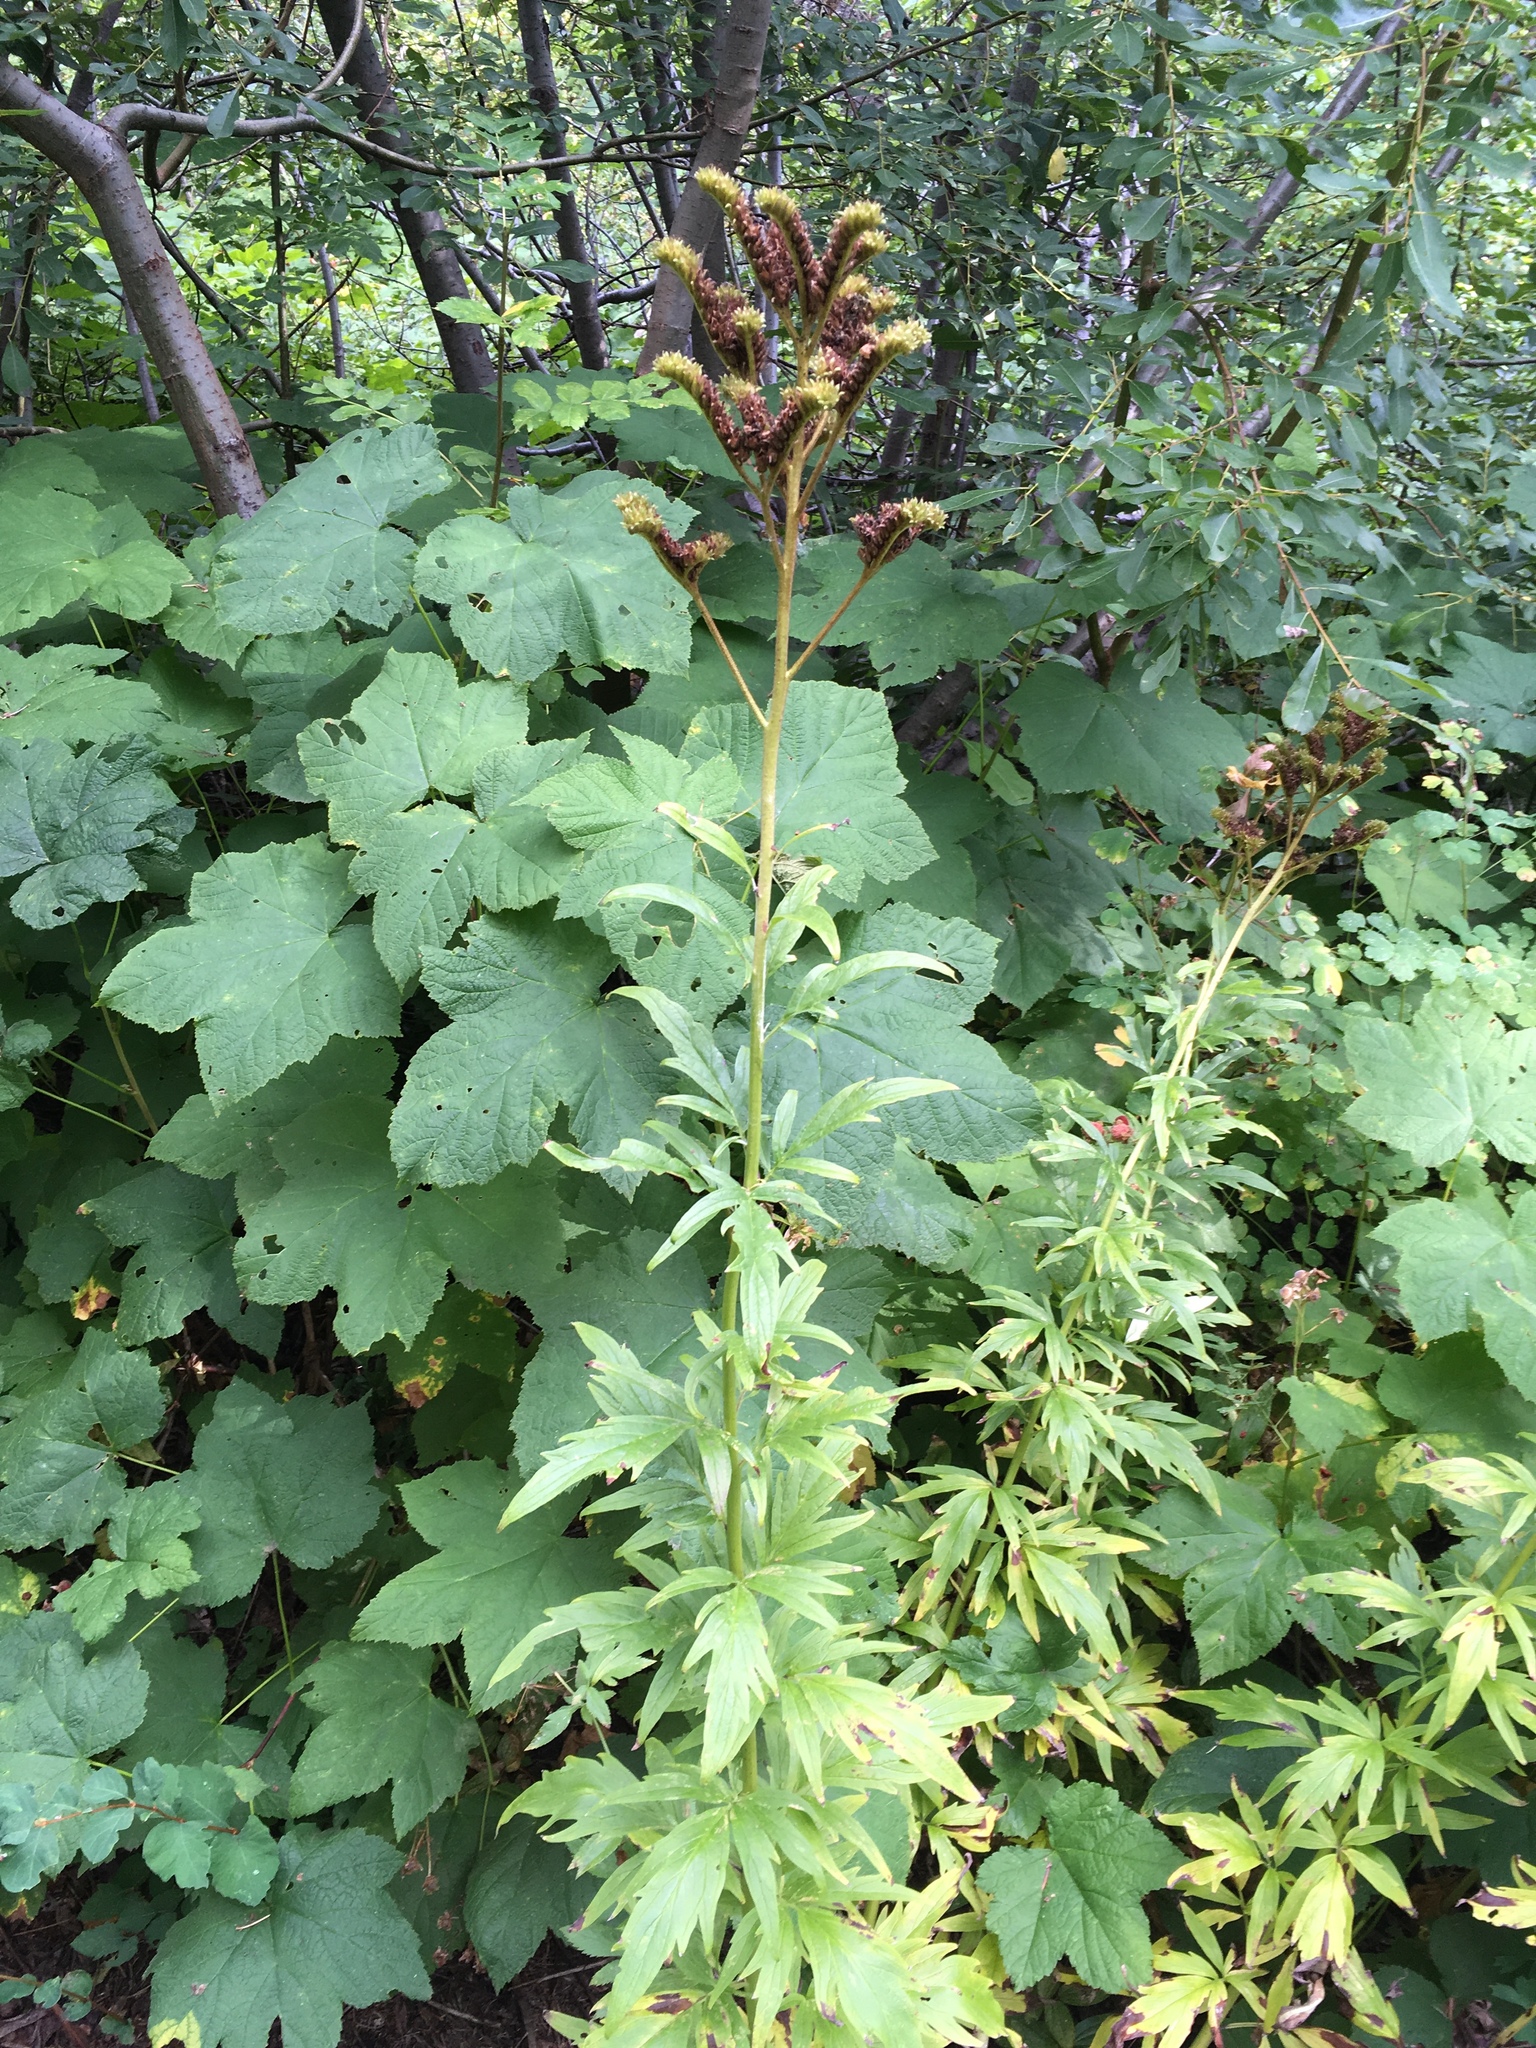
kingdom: Plantae
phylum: Tracheophyta
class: Magnoliopsida
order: Boraginales
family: Hydrophyllaceae
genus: Phacelia
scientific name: Phacelia procera
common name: Tall phacelia
